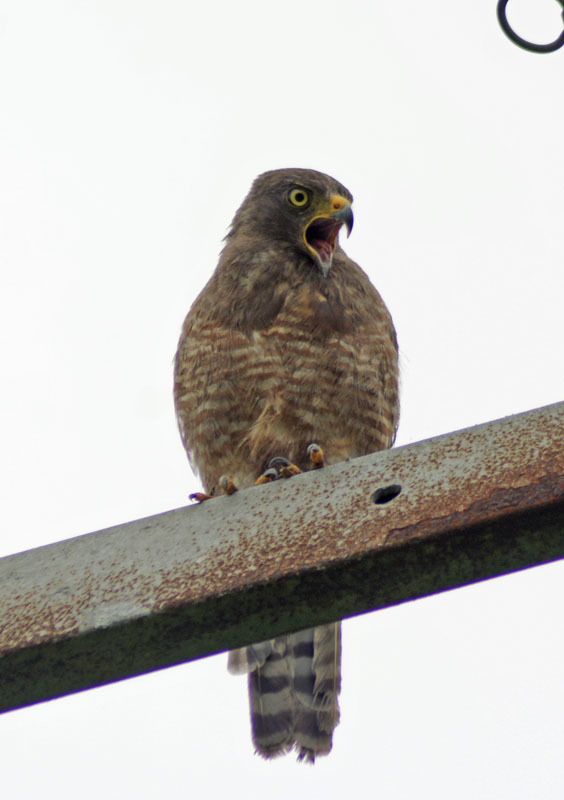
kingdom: Animalia
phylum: Chordata
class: Aves
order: Accipitriformes
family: Accipitridae
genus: Rupornis
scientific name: Rupornis magnirostris
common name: Roadside hawk
